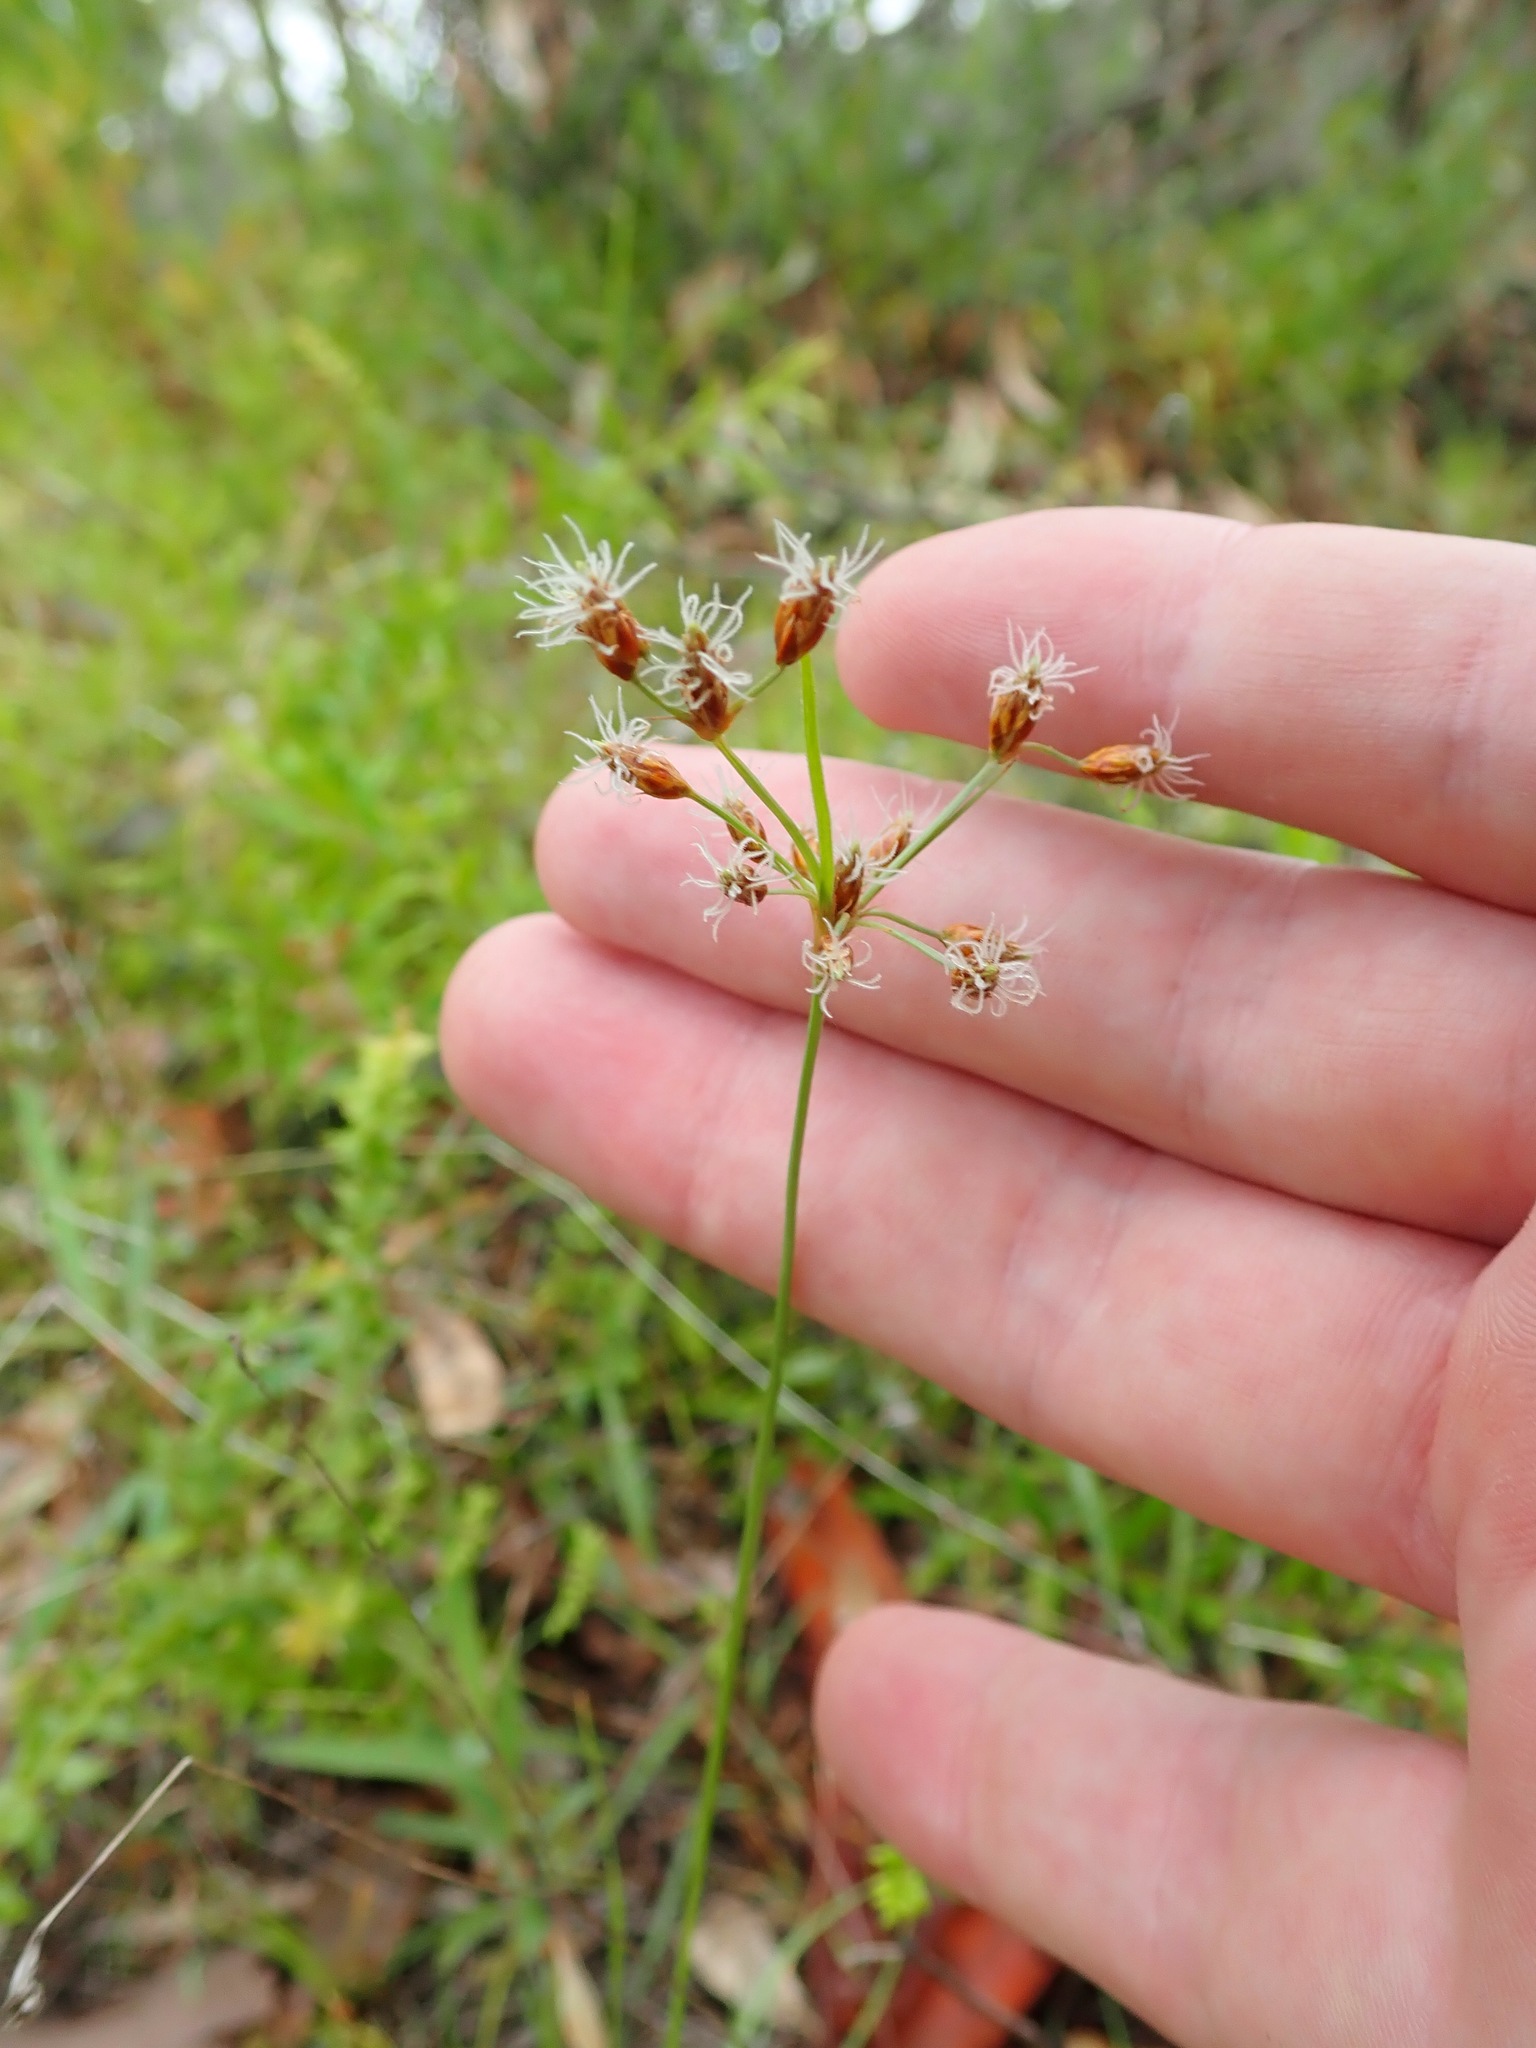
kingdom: Plantae
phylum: Tracheophyta
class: Liliopsida
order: Poales
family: Cyperaceae
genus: Fimbristylis
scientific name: Fimbristylis dichotoma
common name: Forked fimbry
